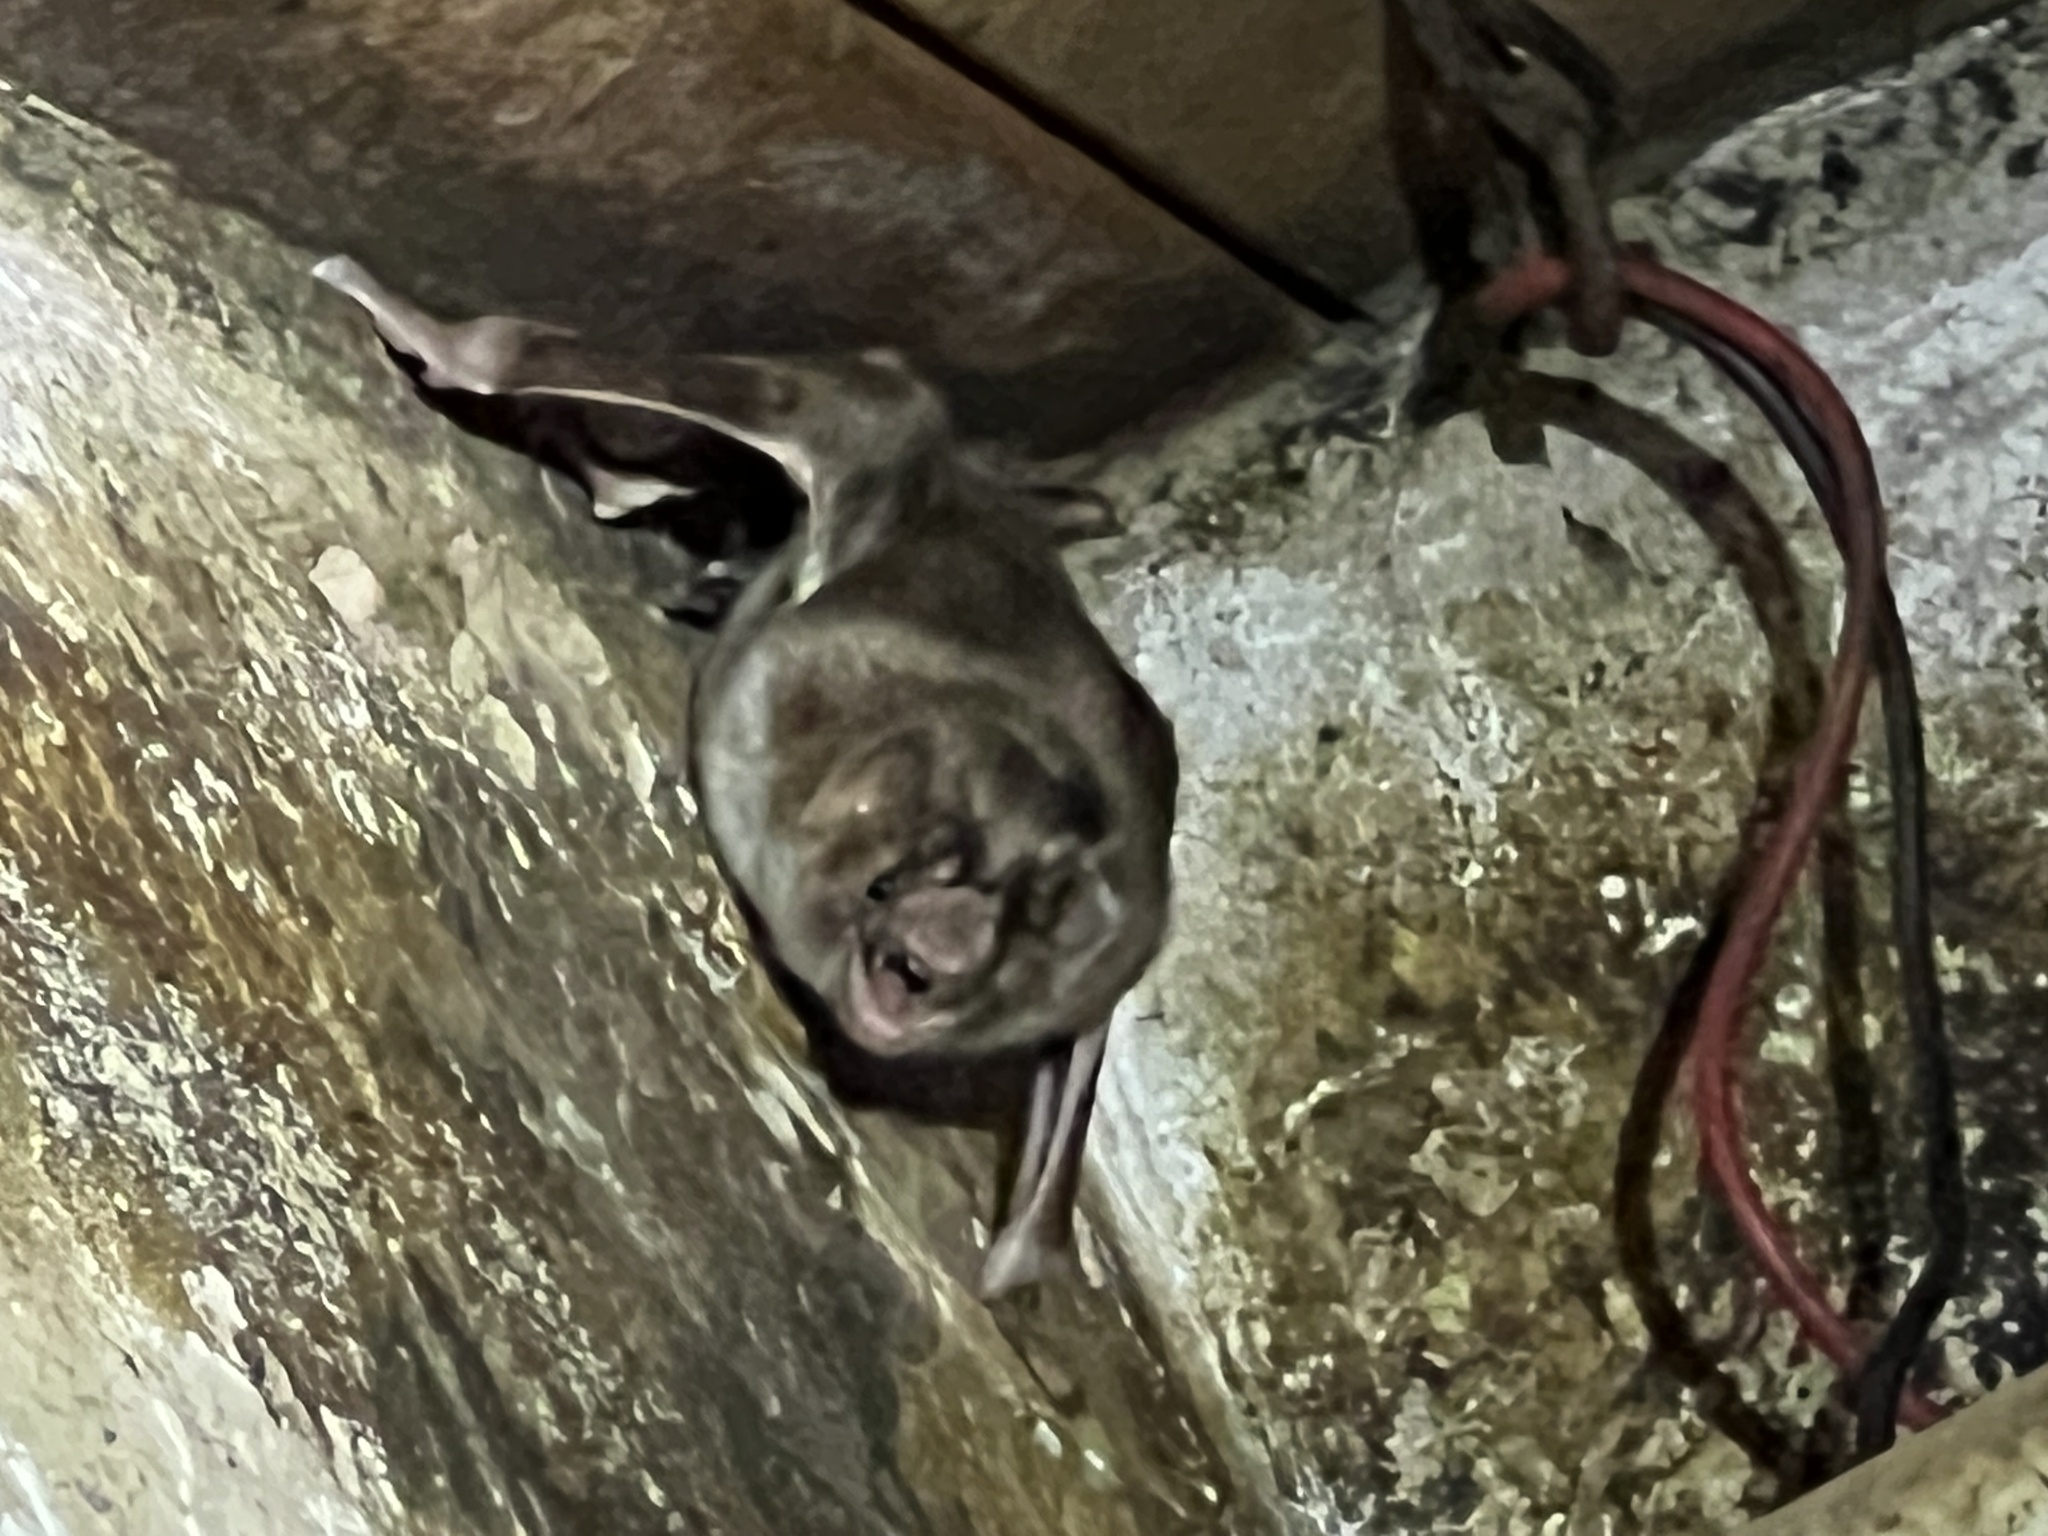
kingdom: Animalia
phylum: Chordata
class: Mammalia
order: Chiroptera
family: Phyllostomidae
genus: Desmodus
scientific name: Desmodus rotundus
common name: Common vampire bat
